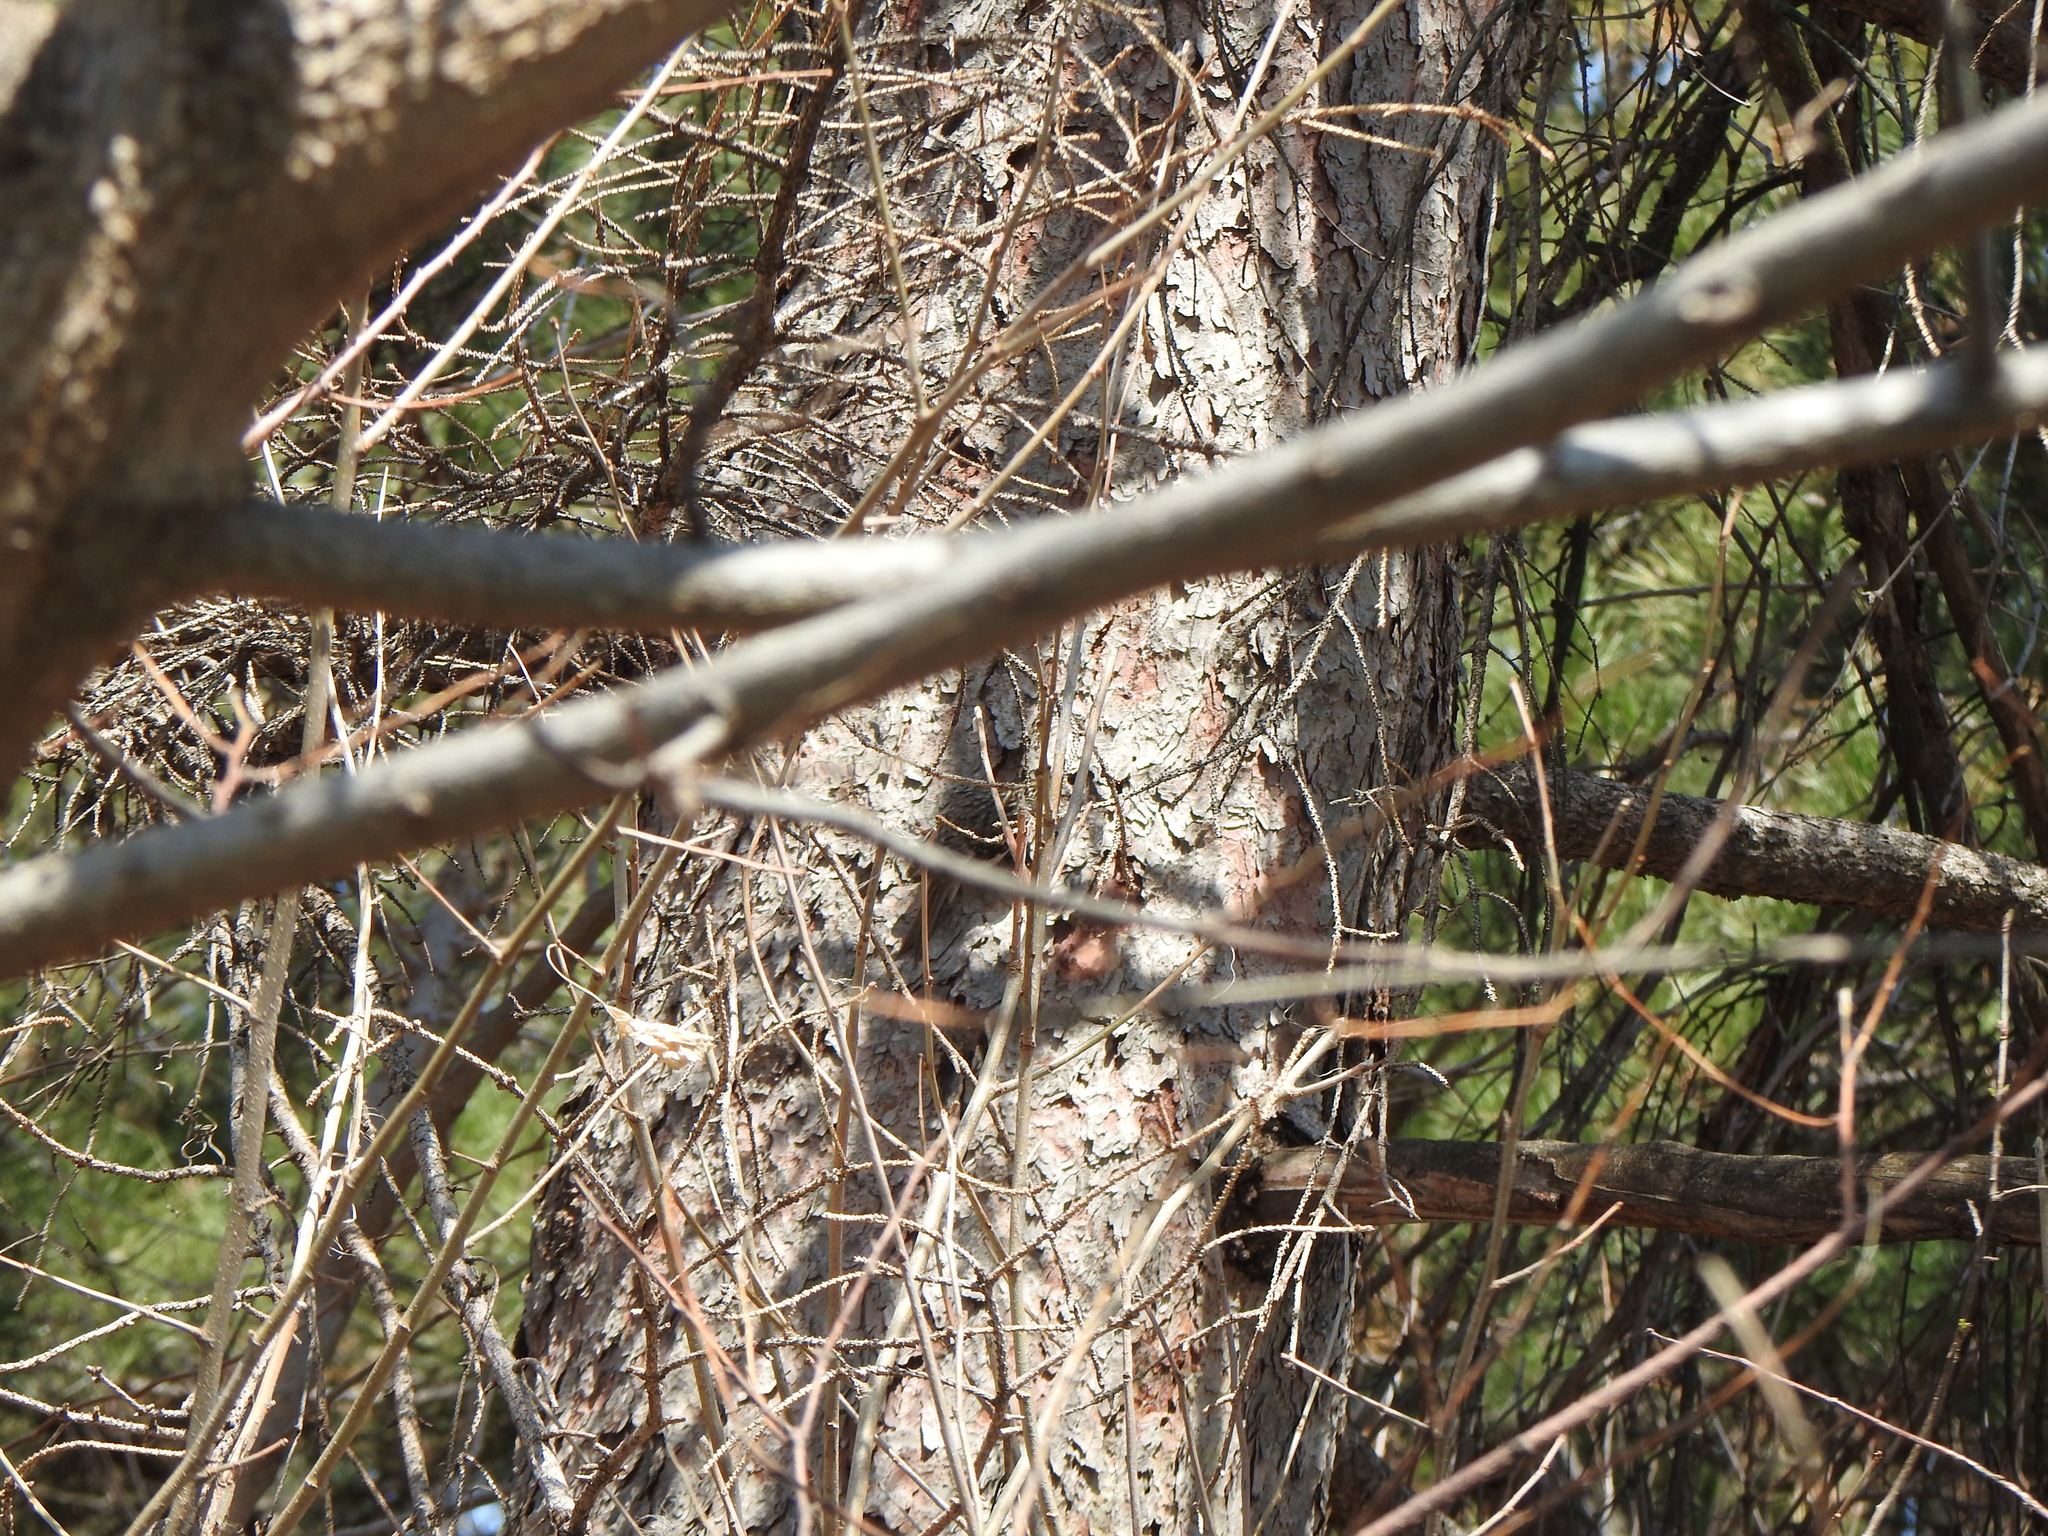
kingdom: Animalia
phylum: Chordata
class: Aves
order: Passeriformes
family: Certhiidae
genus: Certhia
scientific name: Certhia americana
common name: Brown creeper
